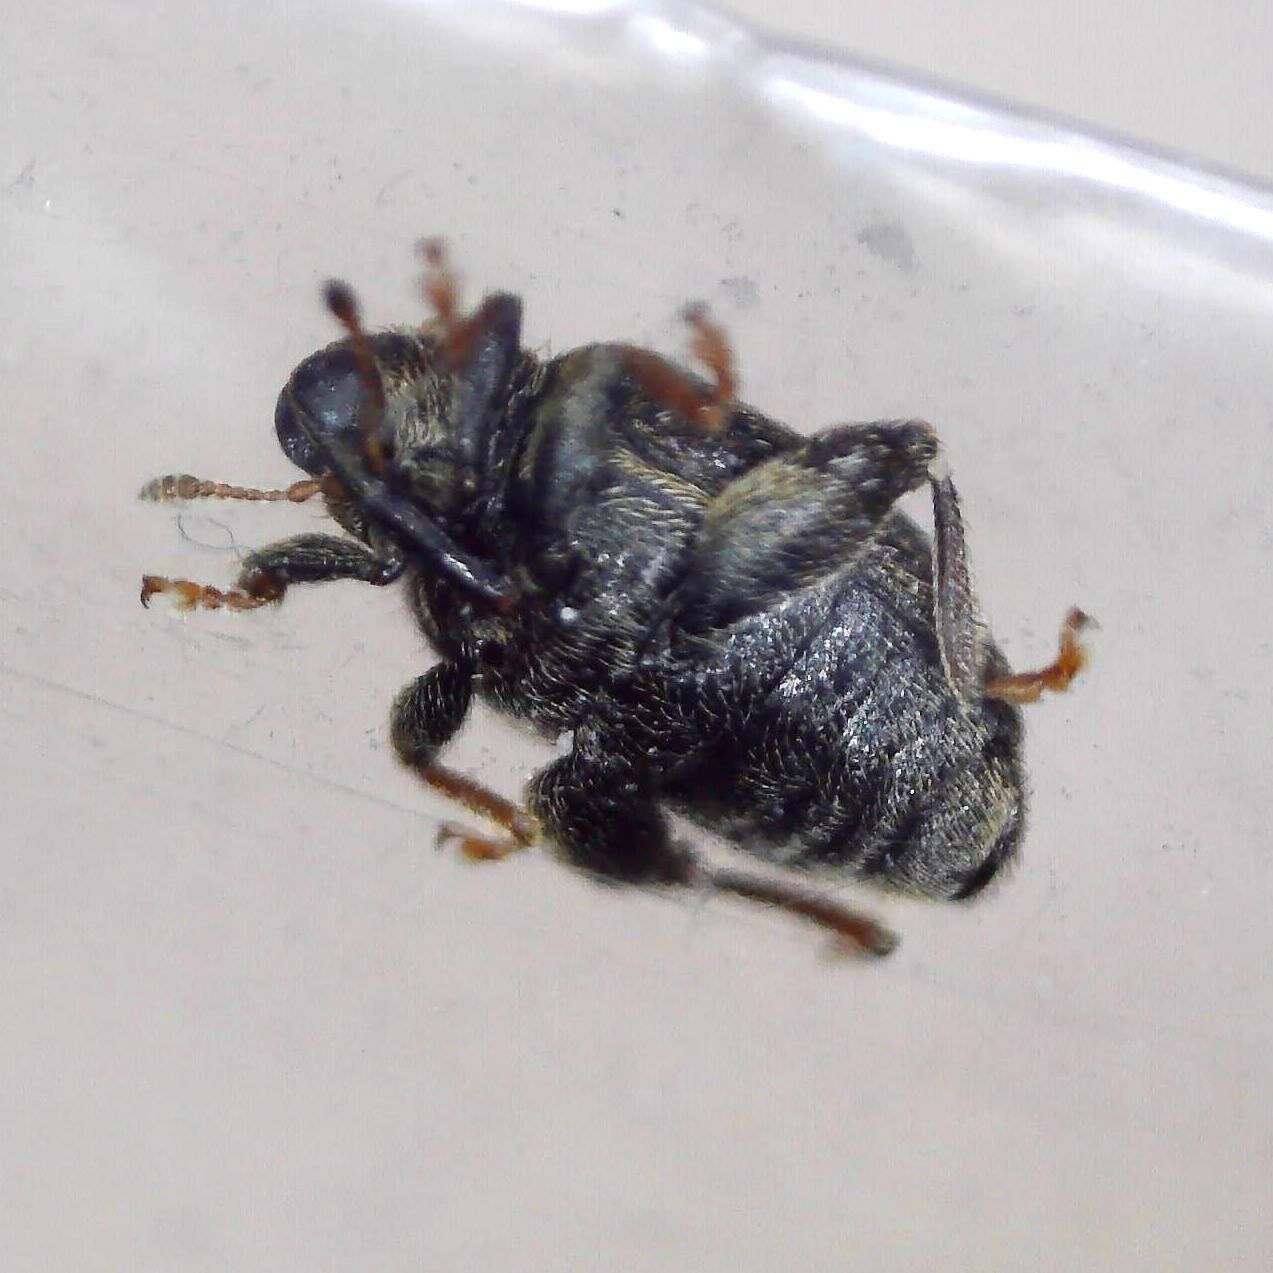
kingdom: Animalia
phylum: Arthropoda
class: Insecta
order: Coleoptera
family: Curculionidae
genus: Orchestes
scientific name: Orchestes hortorum
